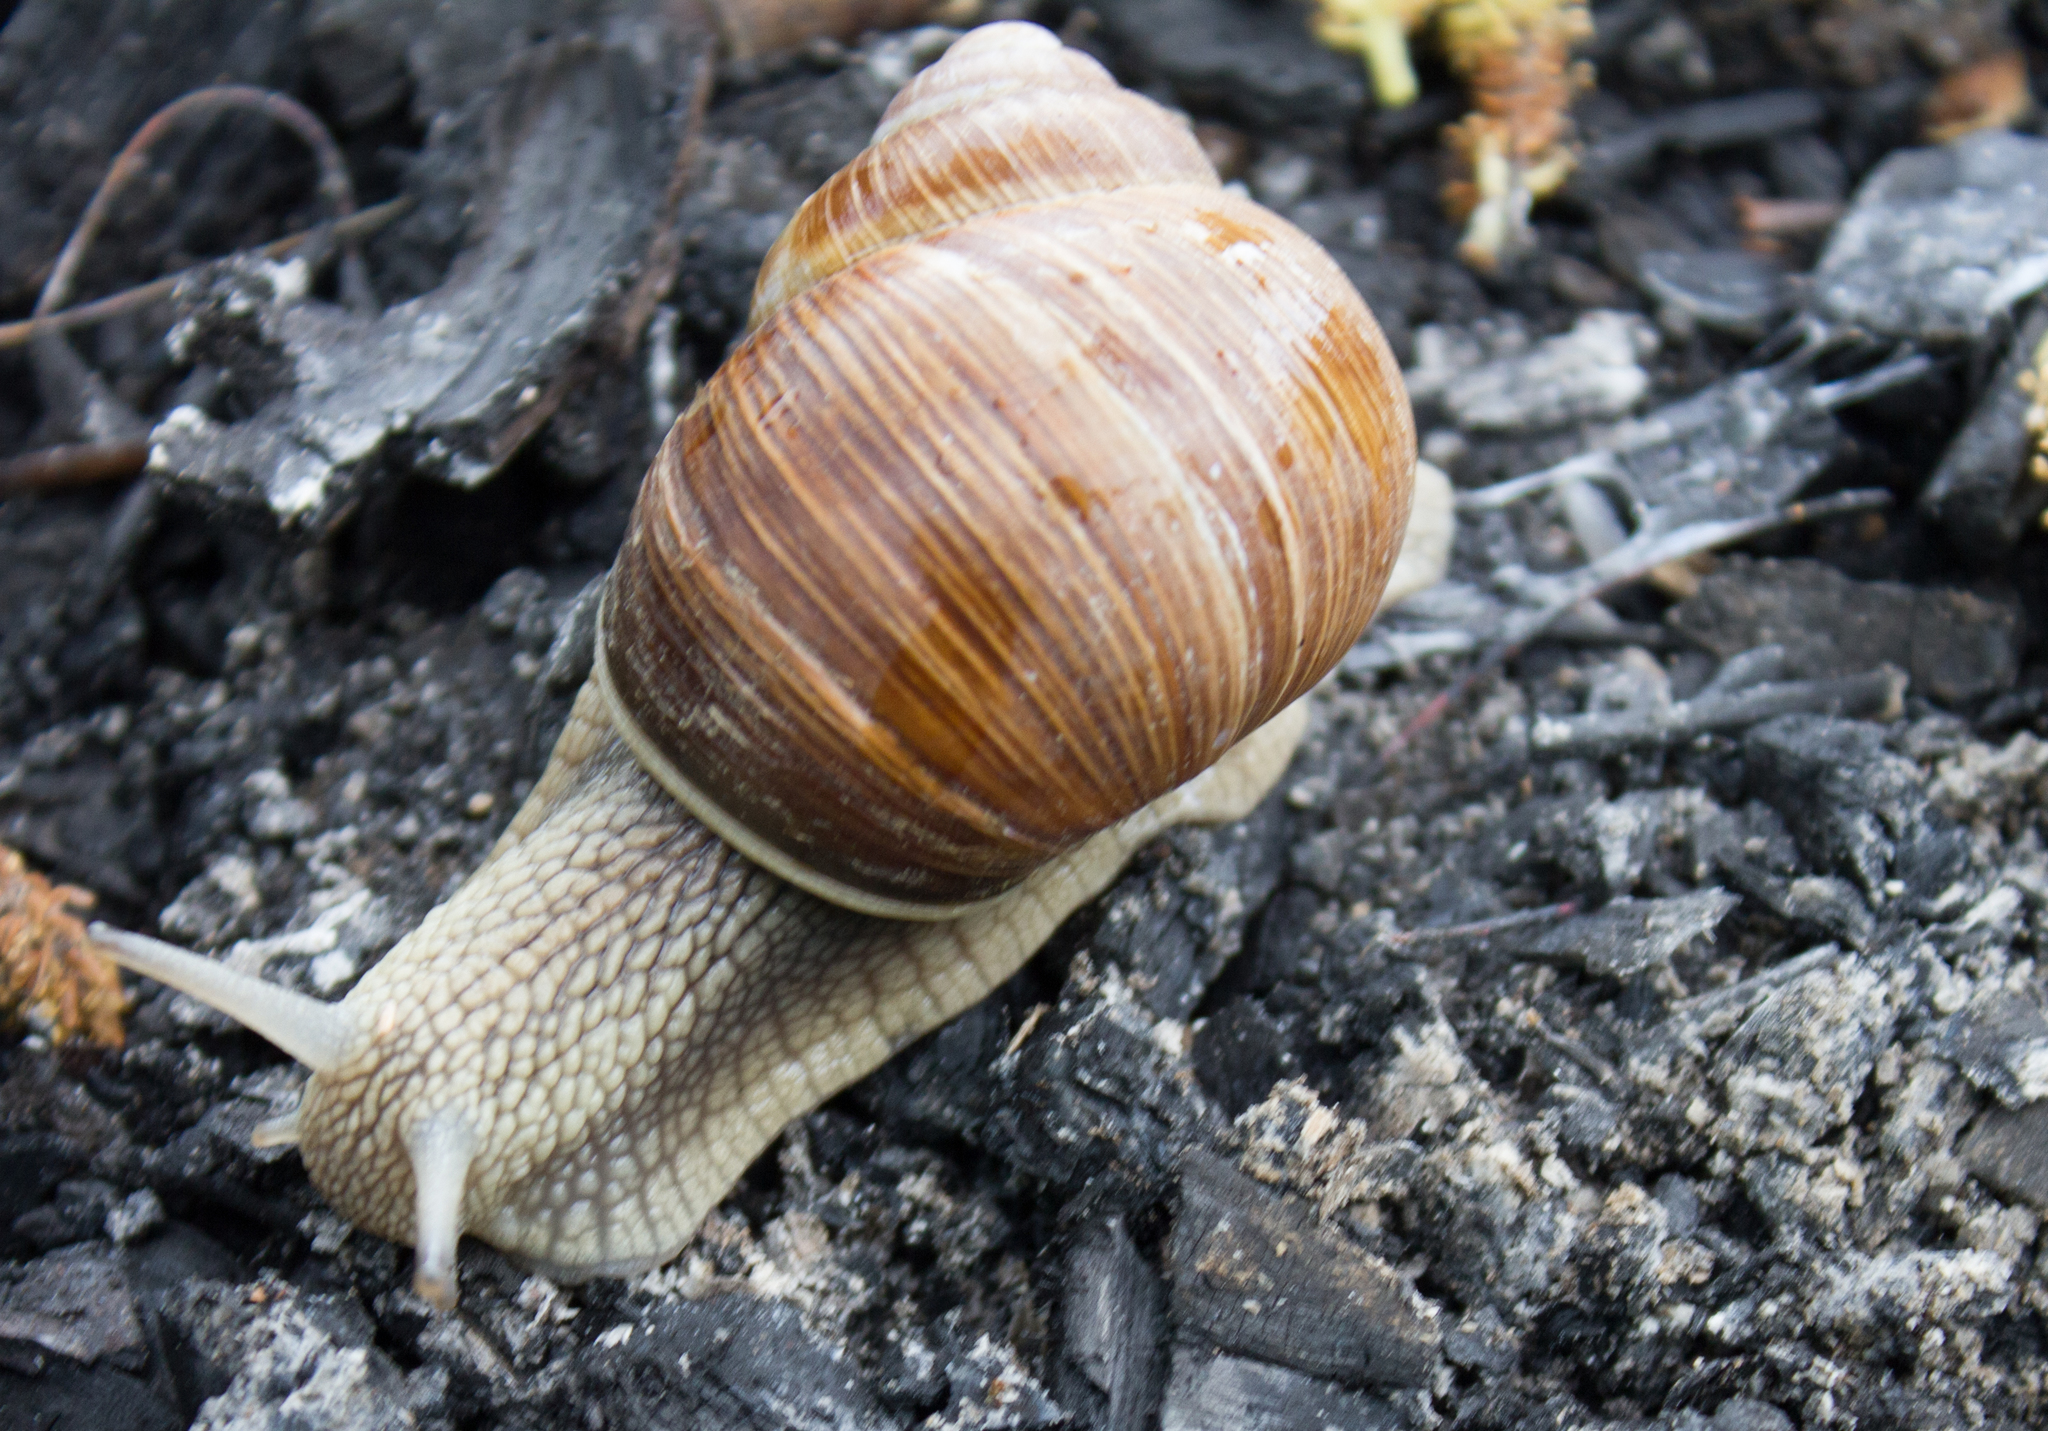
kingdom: Animalia
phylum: Mollusca
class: Gastropoda
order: Stylommatophora
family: Helicidae
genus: Helix
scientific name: Helix pomatia
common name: Roman snail
